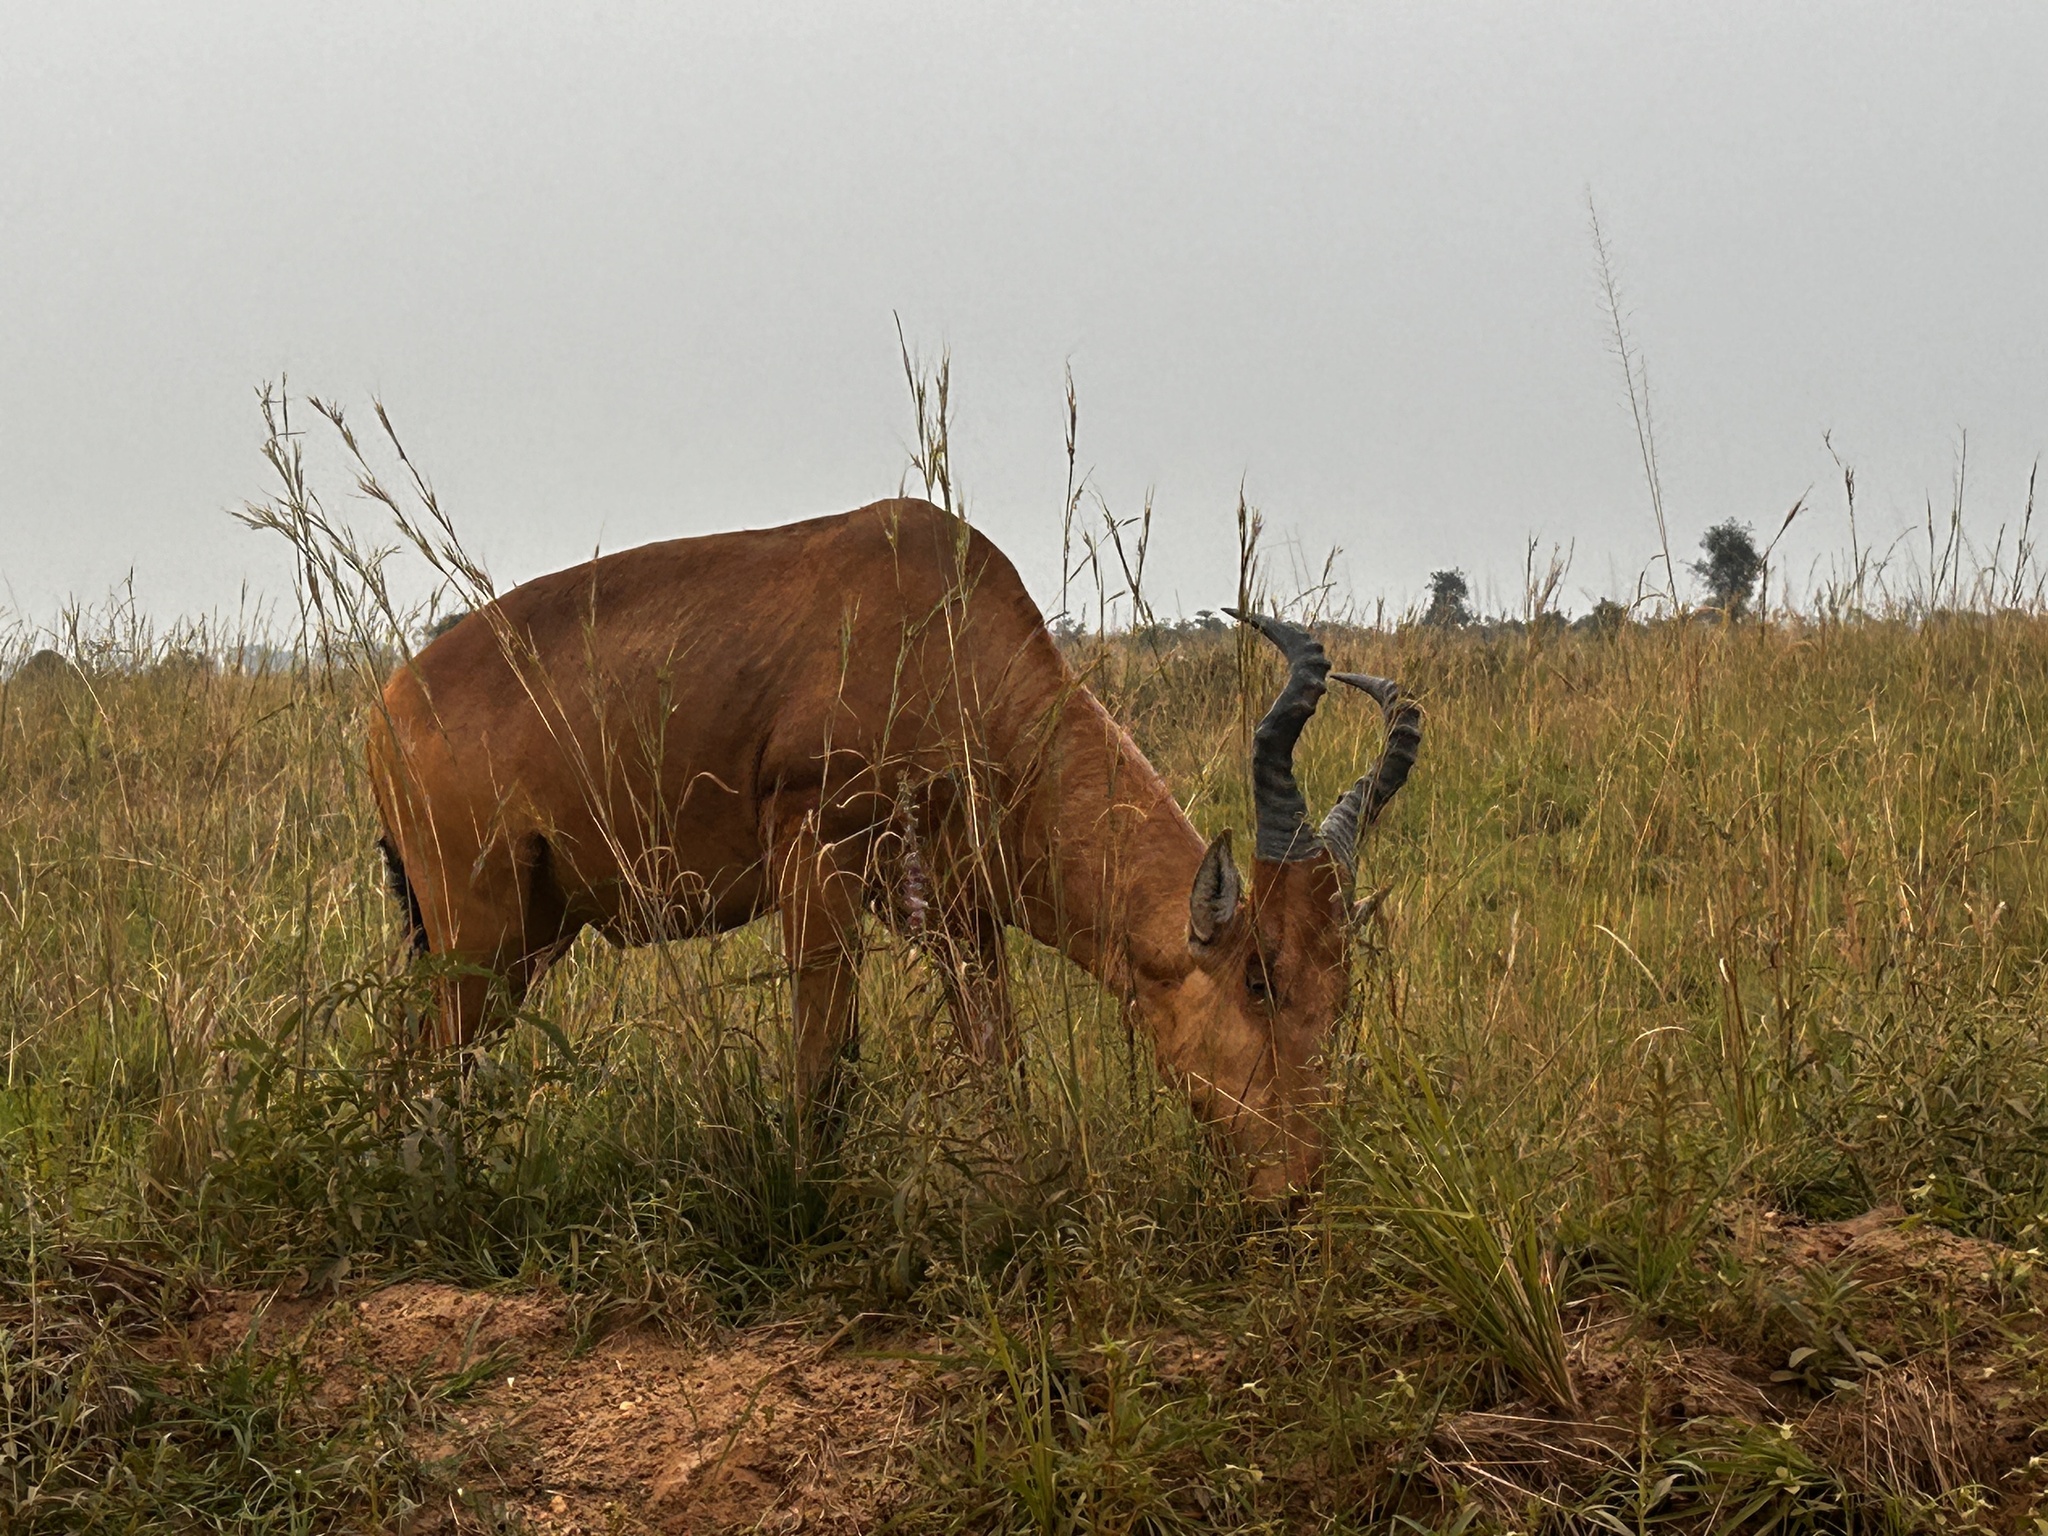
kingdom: Animalia
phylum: Chordata
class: Mammalia
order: Artiodactyla
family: Bovidae
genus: Alcelaphus
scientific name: Alcelaphus buselaphus
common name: Hartebeest
